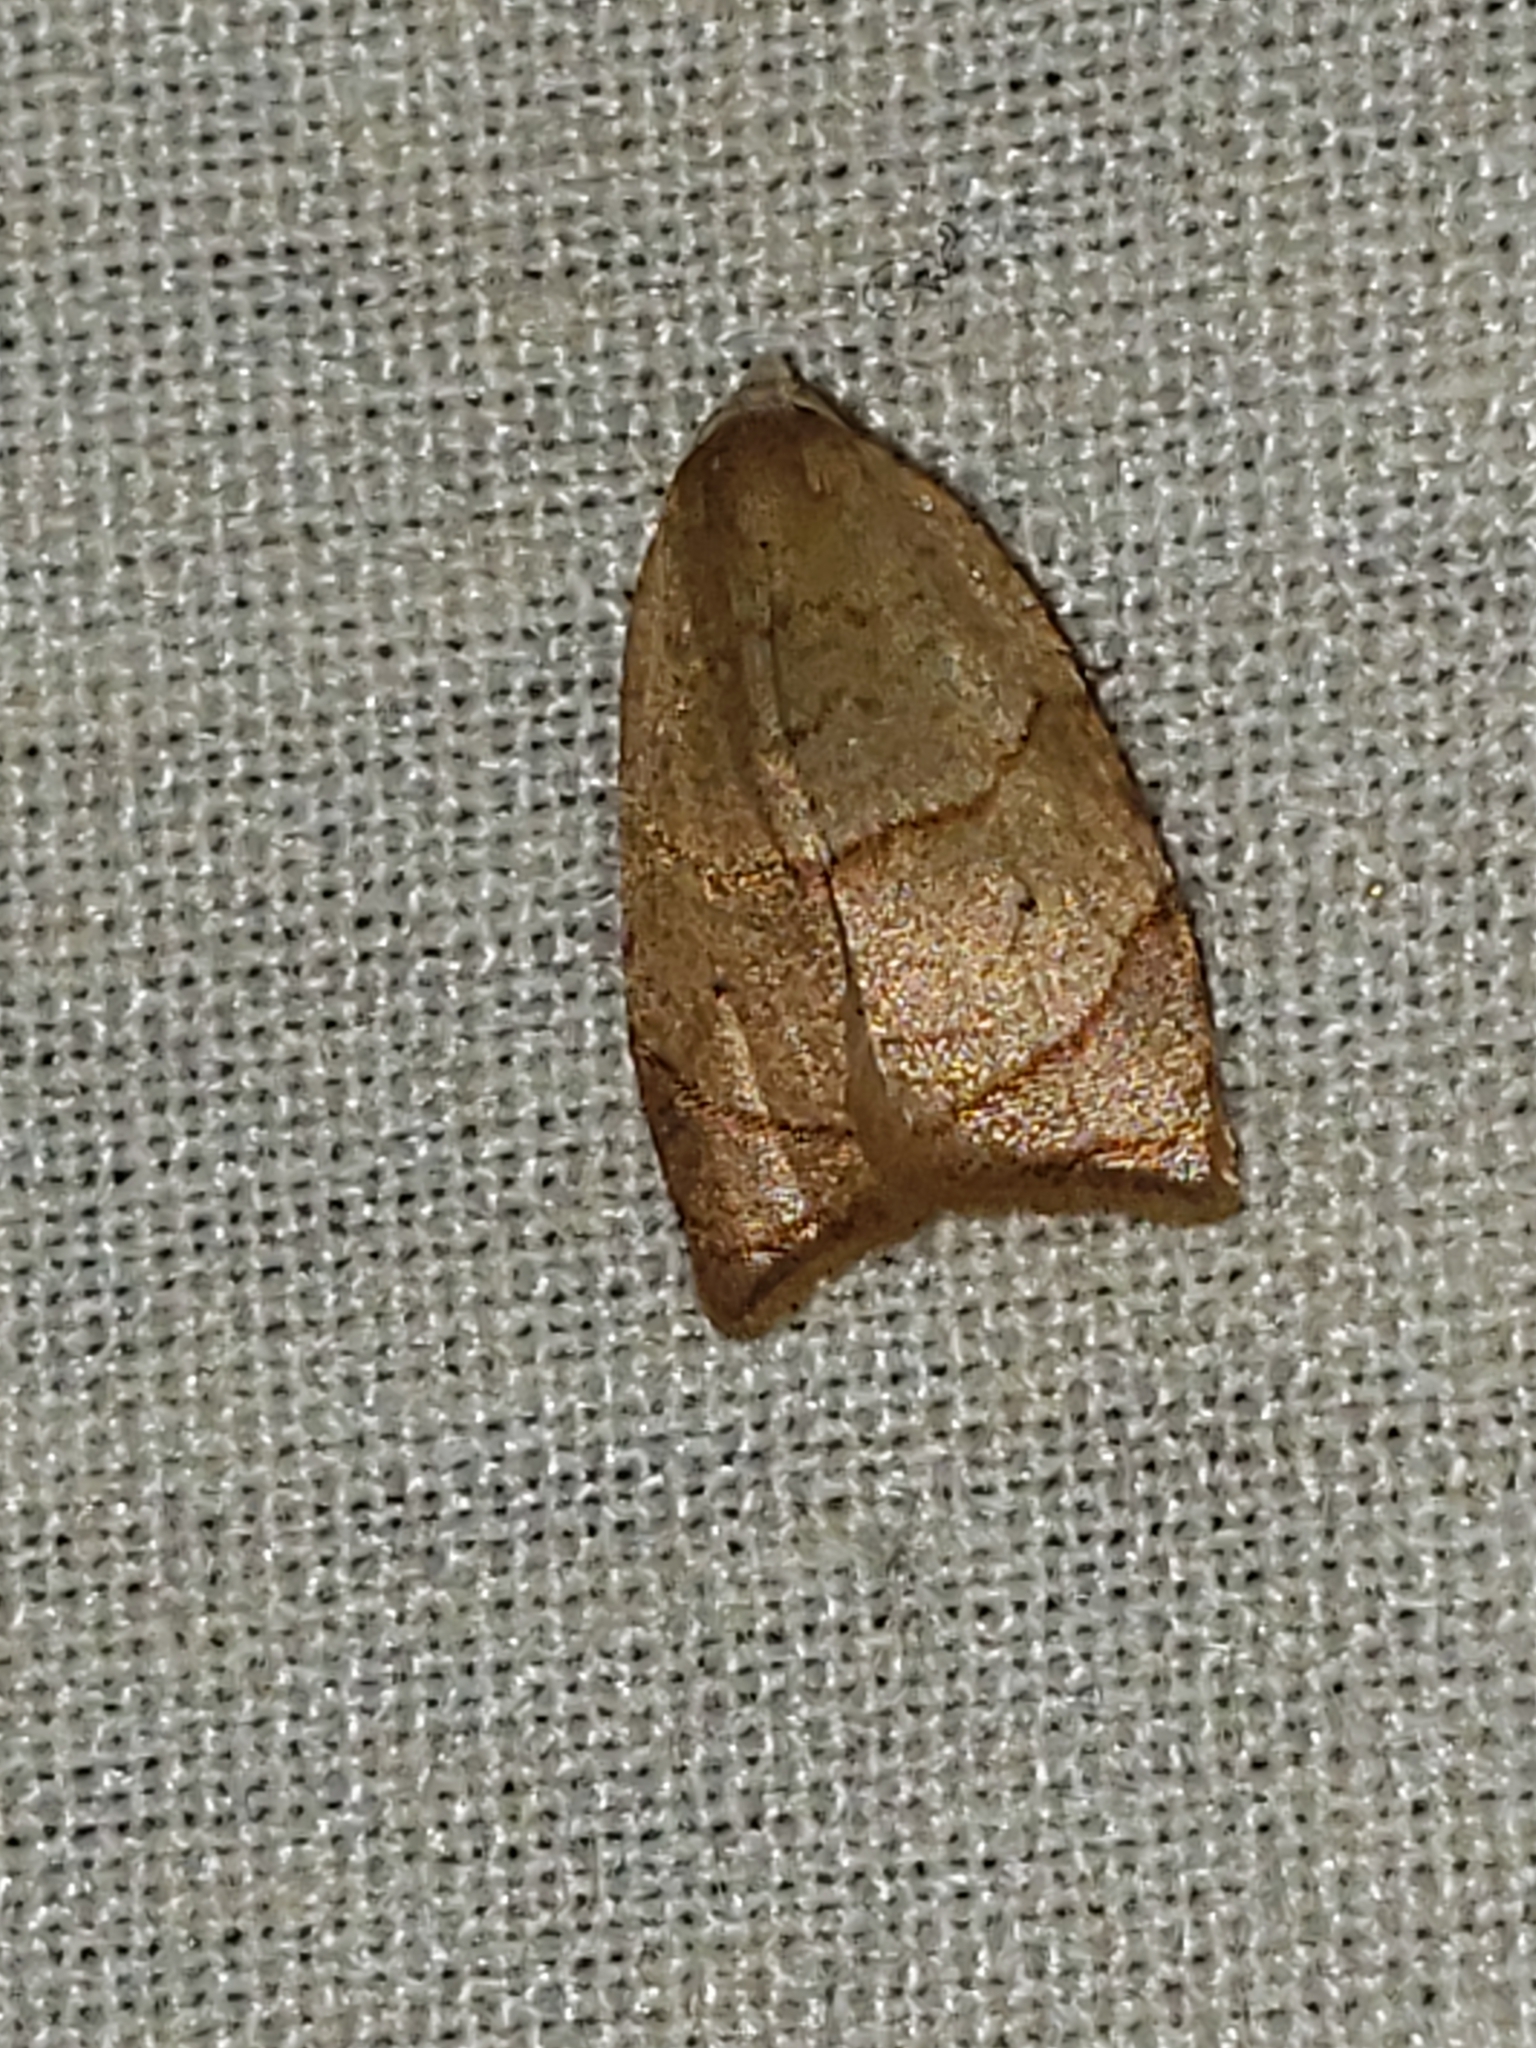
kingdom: Animalia
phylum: Arthropoda
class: Insecta
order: Lepidoptera
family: Tortricidae
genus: Coelostathma
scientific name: Coelostathma discopunctana
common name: Batman moth
